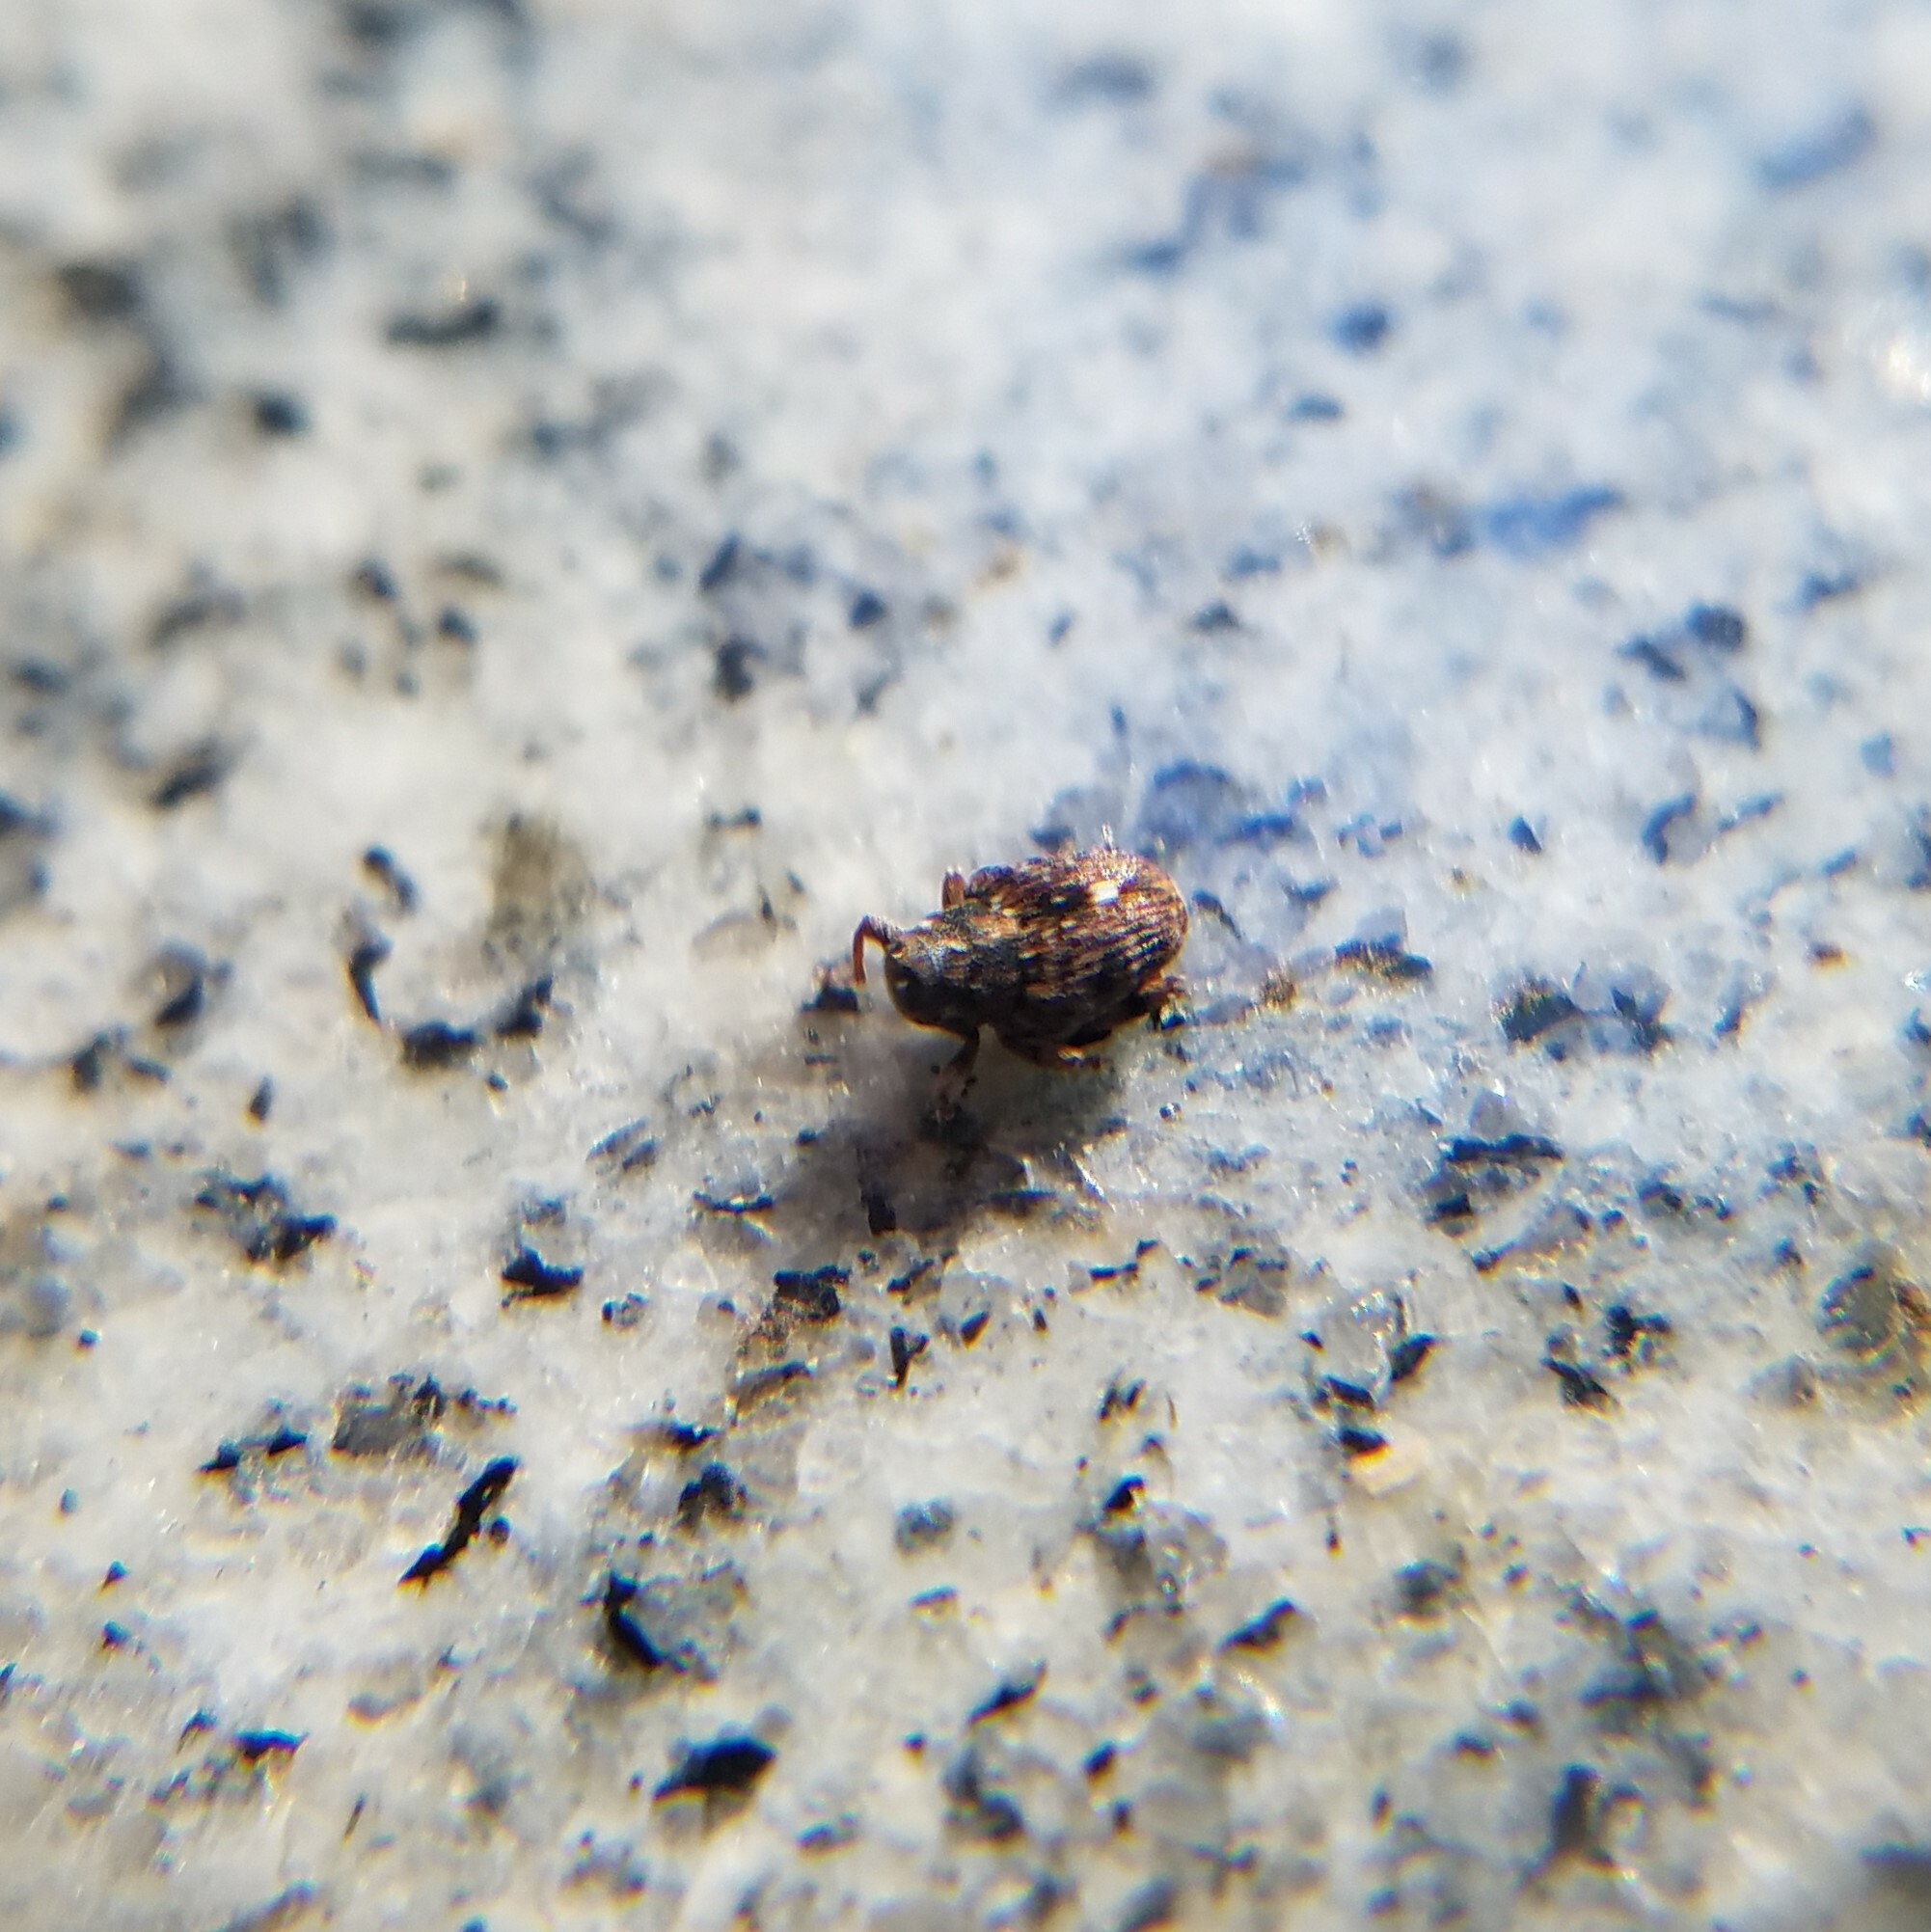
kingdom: Animalia
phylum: Arthropoda
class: Insecta
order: Coleoptera
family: Curculionidae
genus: Lechriops
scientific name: Lechriops oculatus
